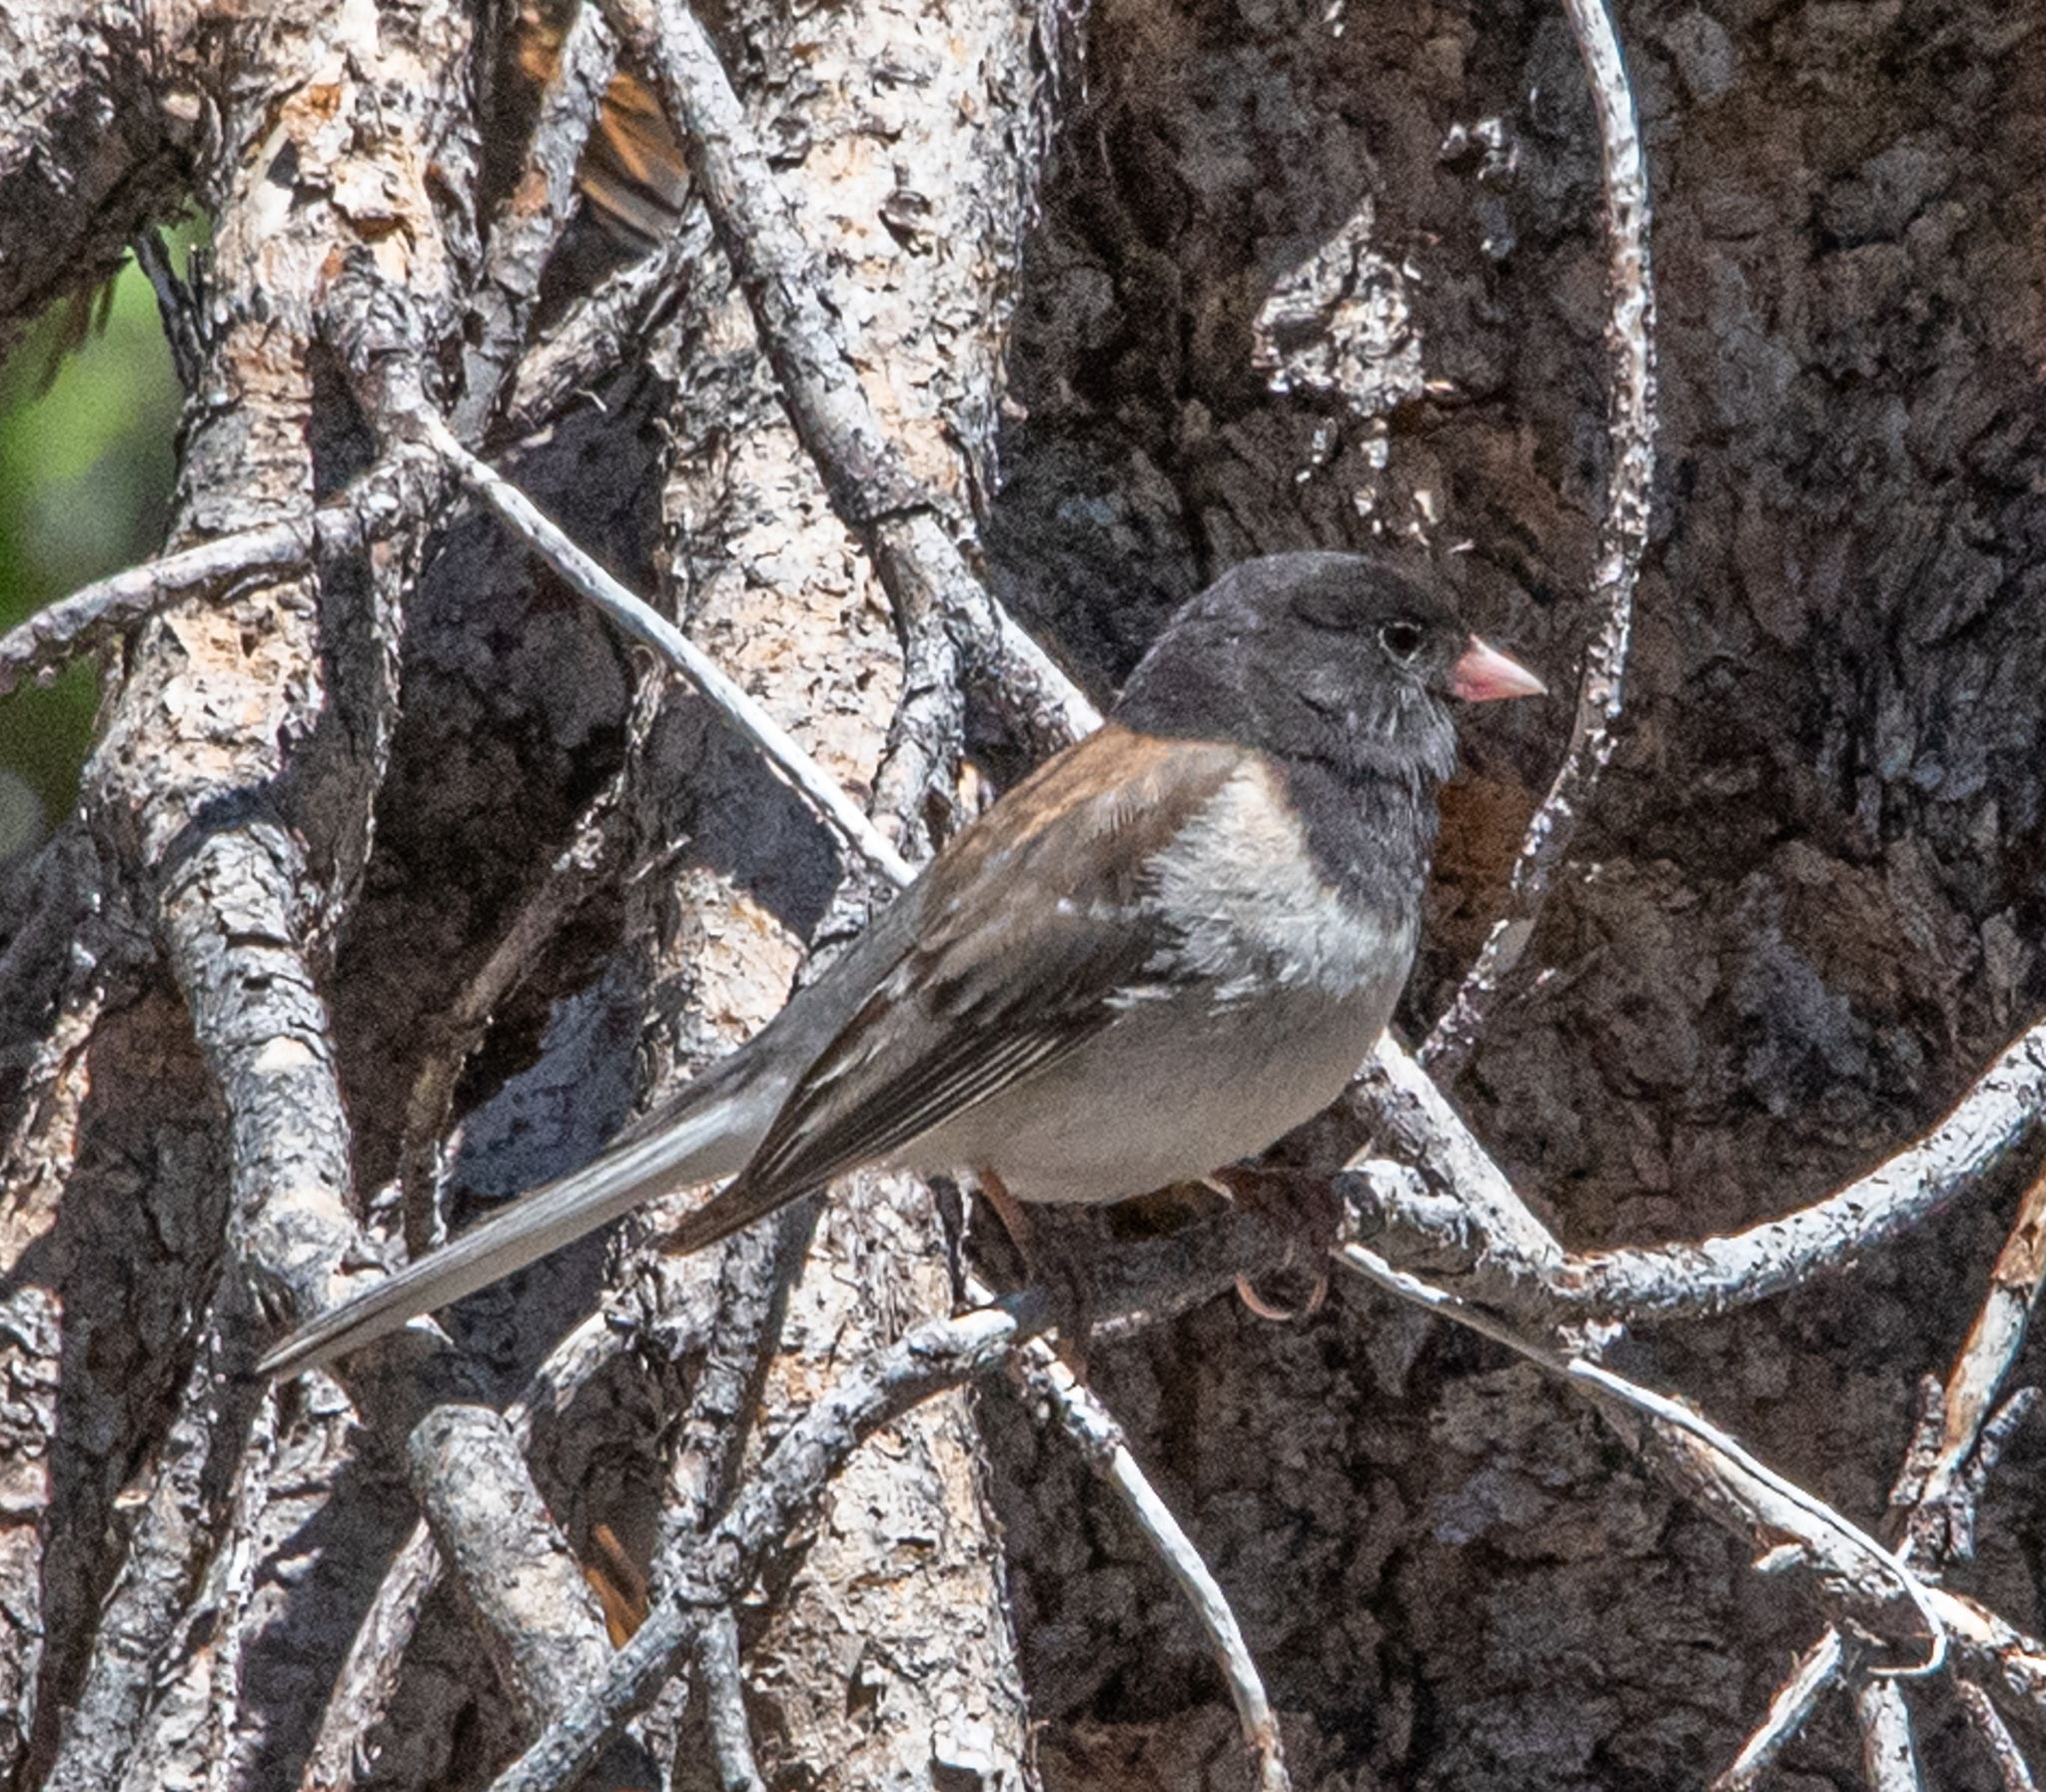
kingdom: Animalia
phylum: Chordata
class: Aves
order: Passeriformes
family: Passerellidae
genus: Junco
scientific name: Junco hyemalis
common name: Dark-eyed junco
